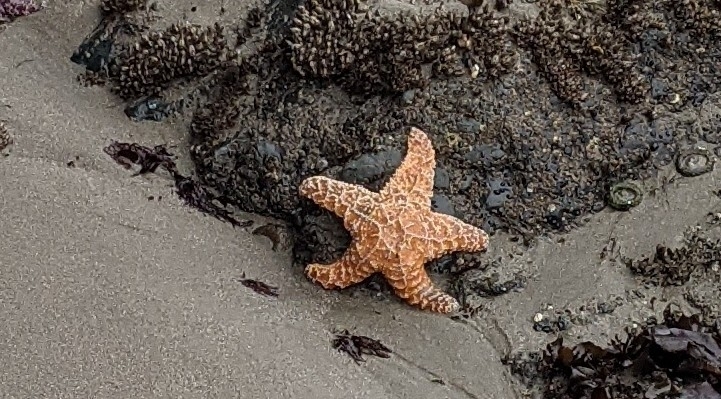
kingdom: Animalia
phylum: Echinodermata
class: Asteroidea
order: Forcipulatida
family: Asteriidae
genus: Pisaster
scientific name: Pisaster ochraceus
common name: Ochre stars
